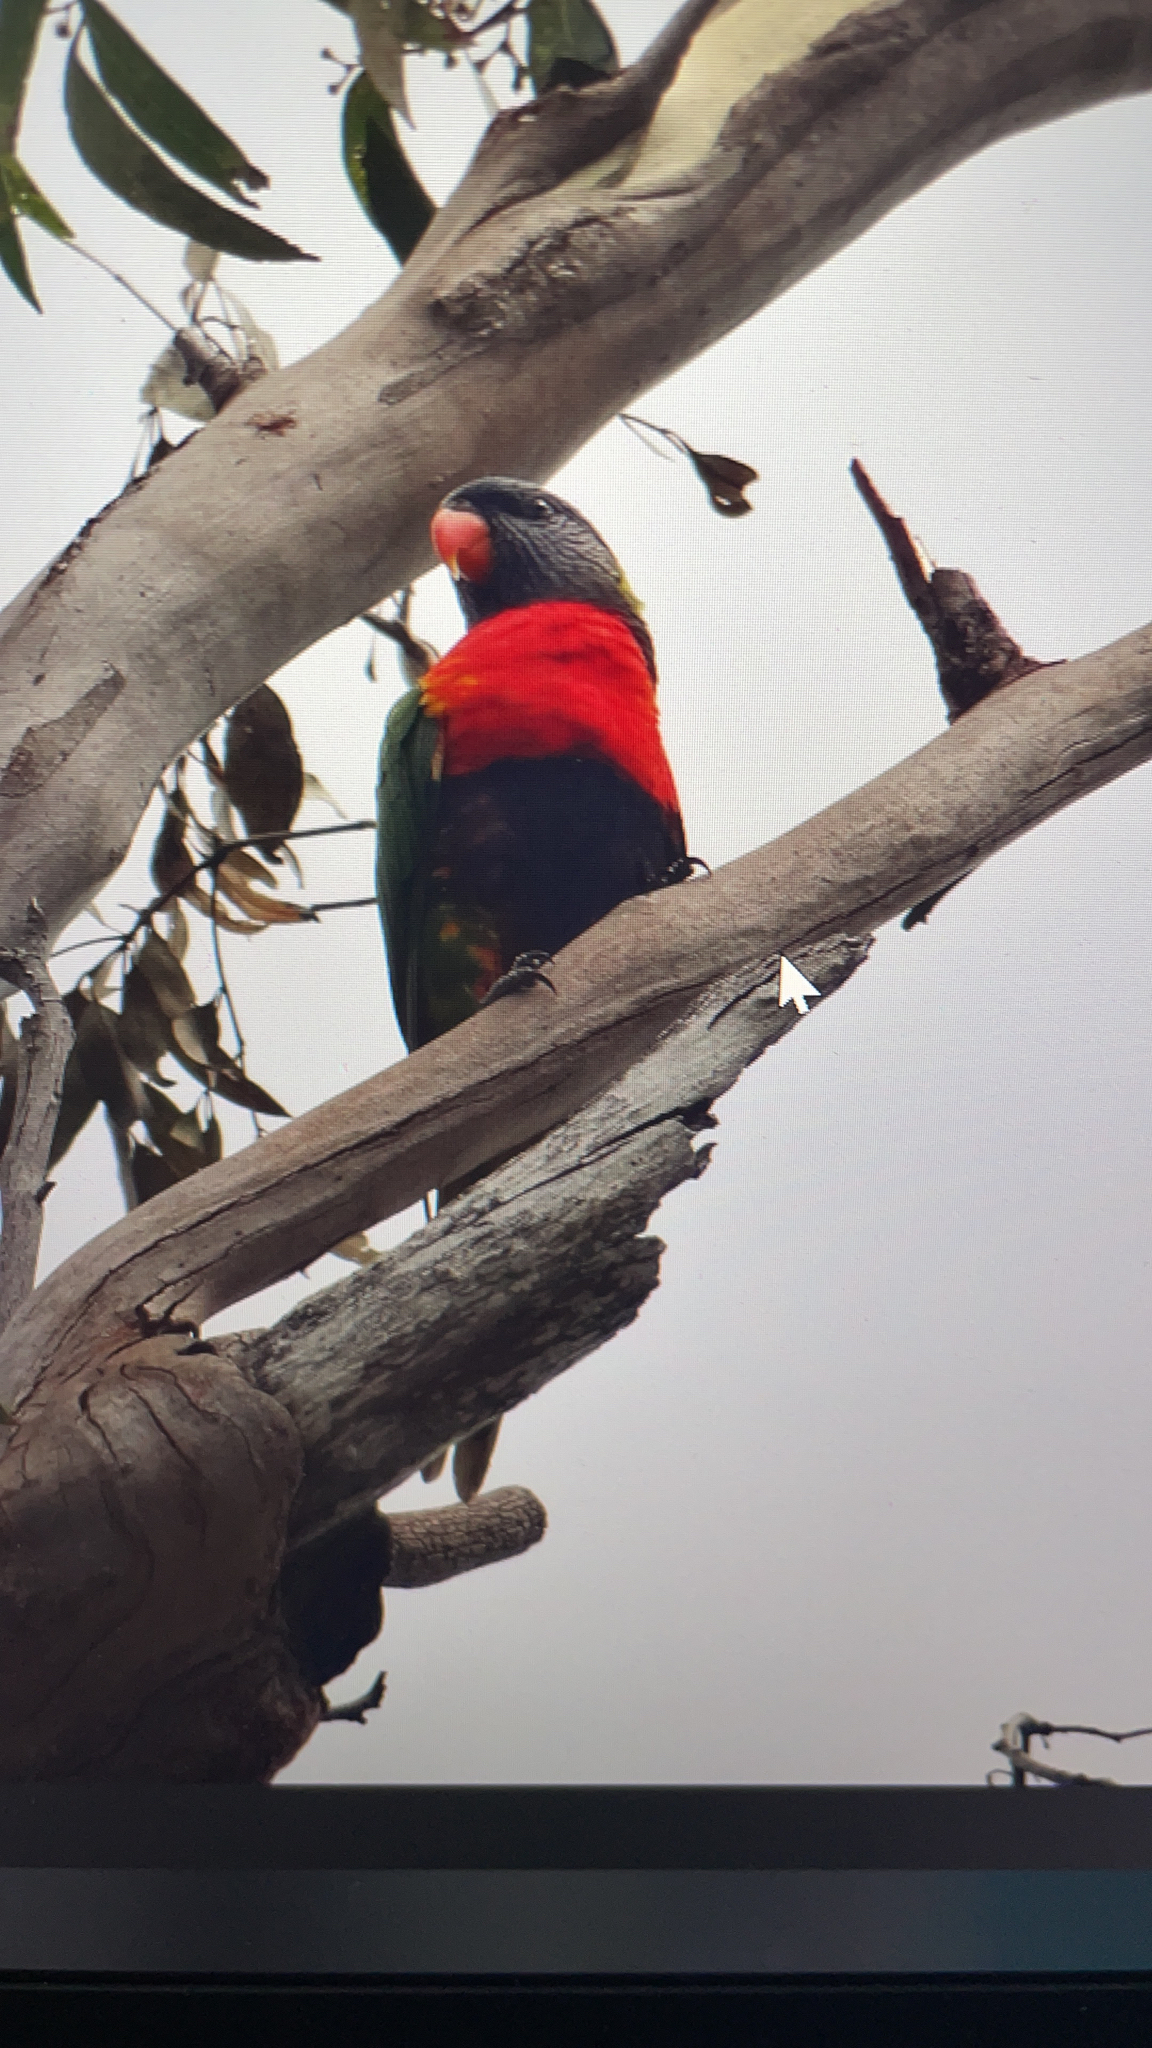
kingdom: Animalia
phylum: Chordata
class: Aves
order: Psittaciformes
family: Psittacidae
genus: Trichoglossus
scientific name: Trichoglossus haematodus
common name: Coconut lorikeet
